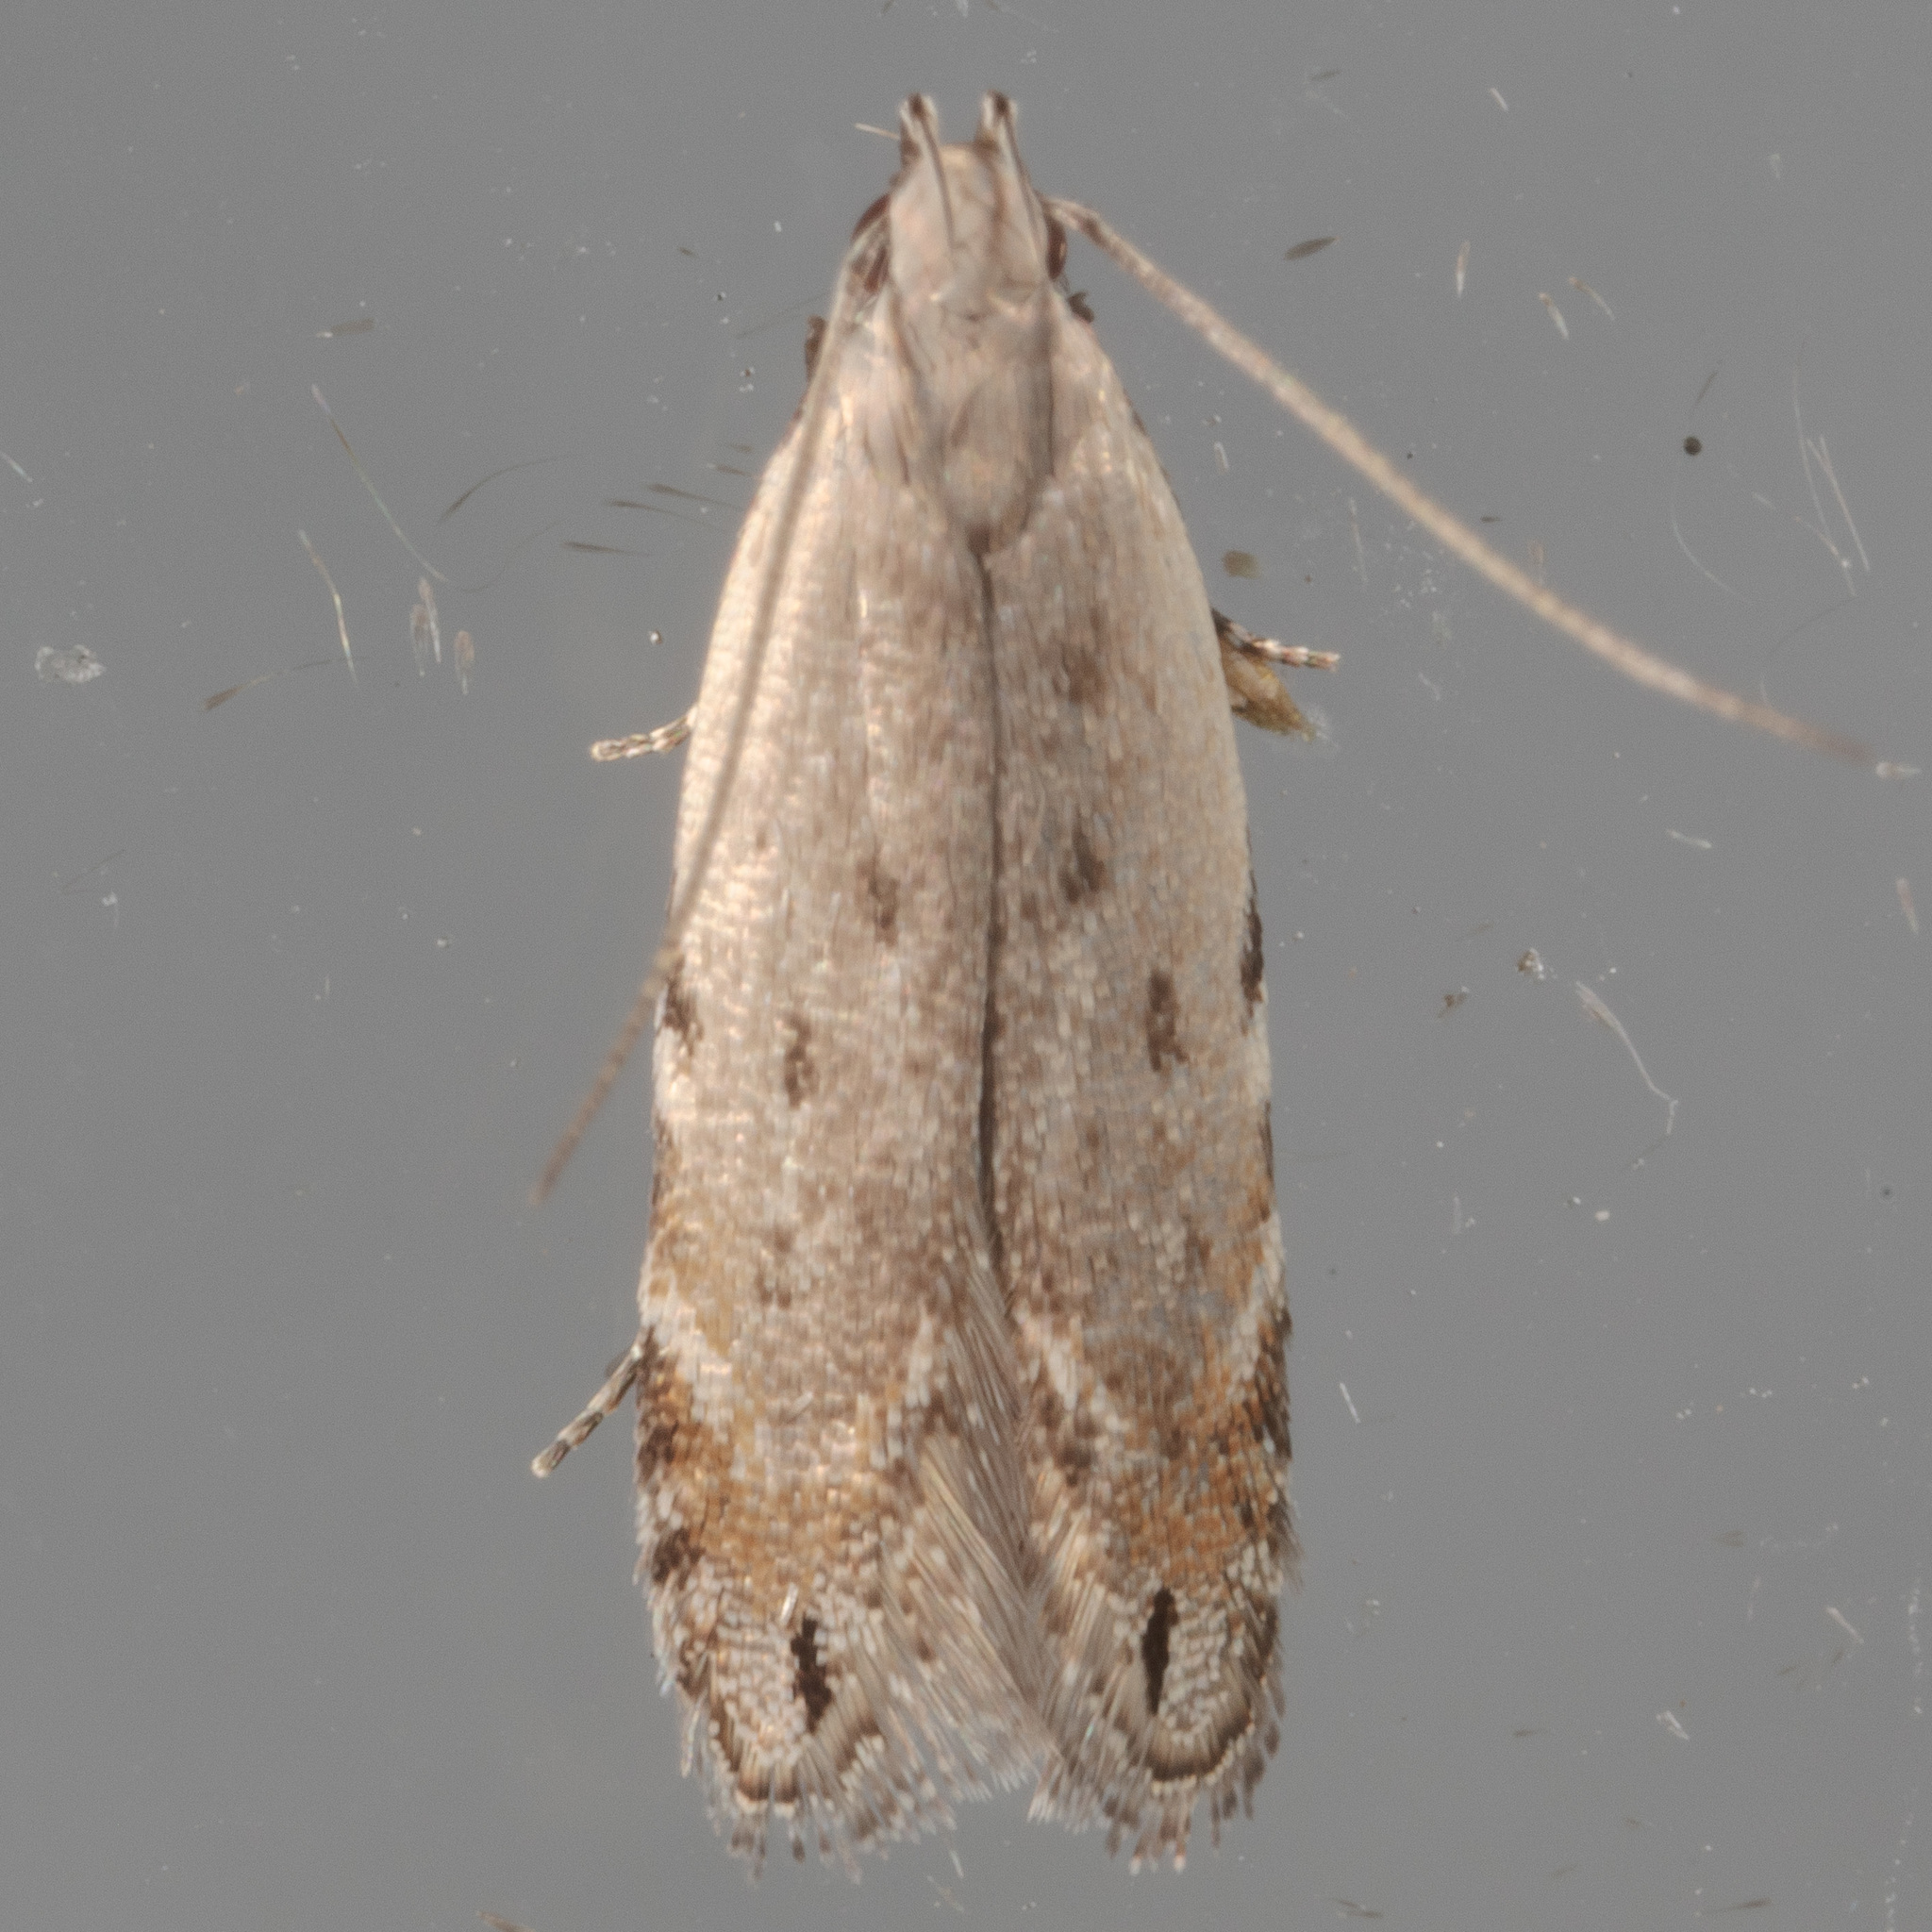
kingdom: Animalia
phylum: Arthropoda
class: Insecta
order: Lepidoptera
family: Gelechiidae
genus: Battaristis
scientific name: Battaristis concinnusella
